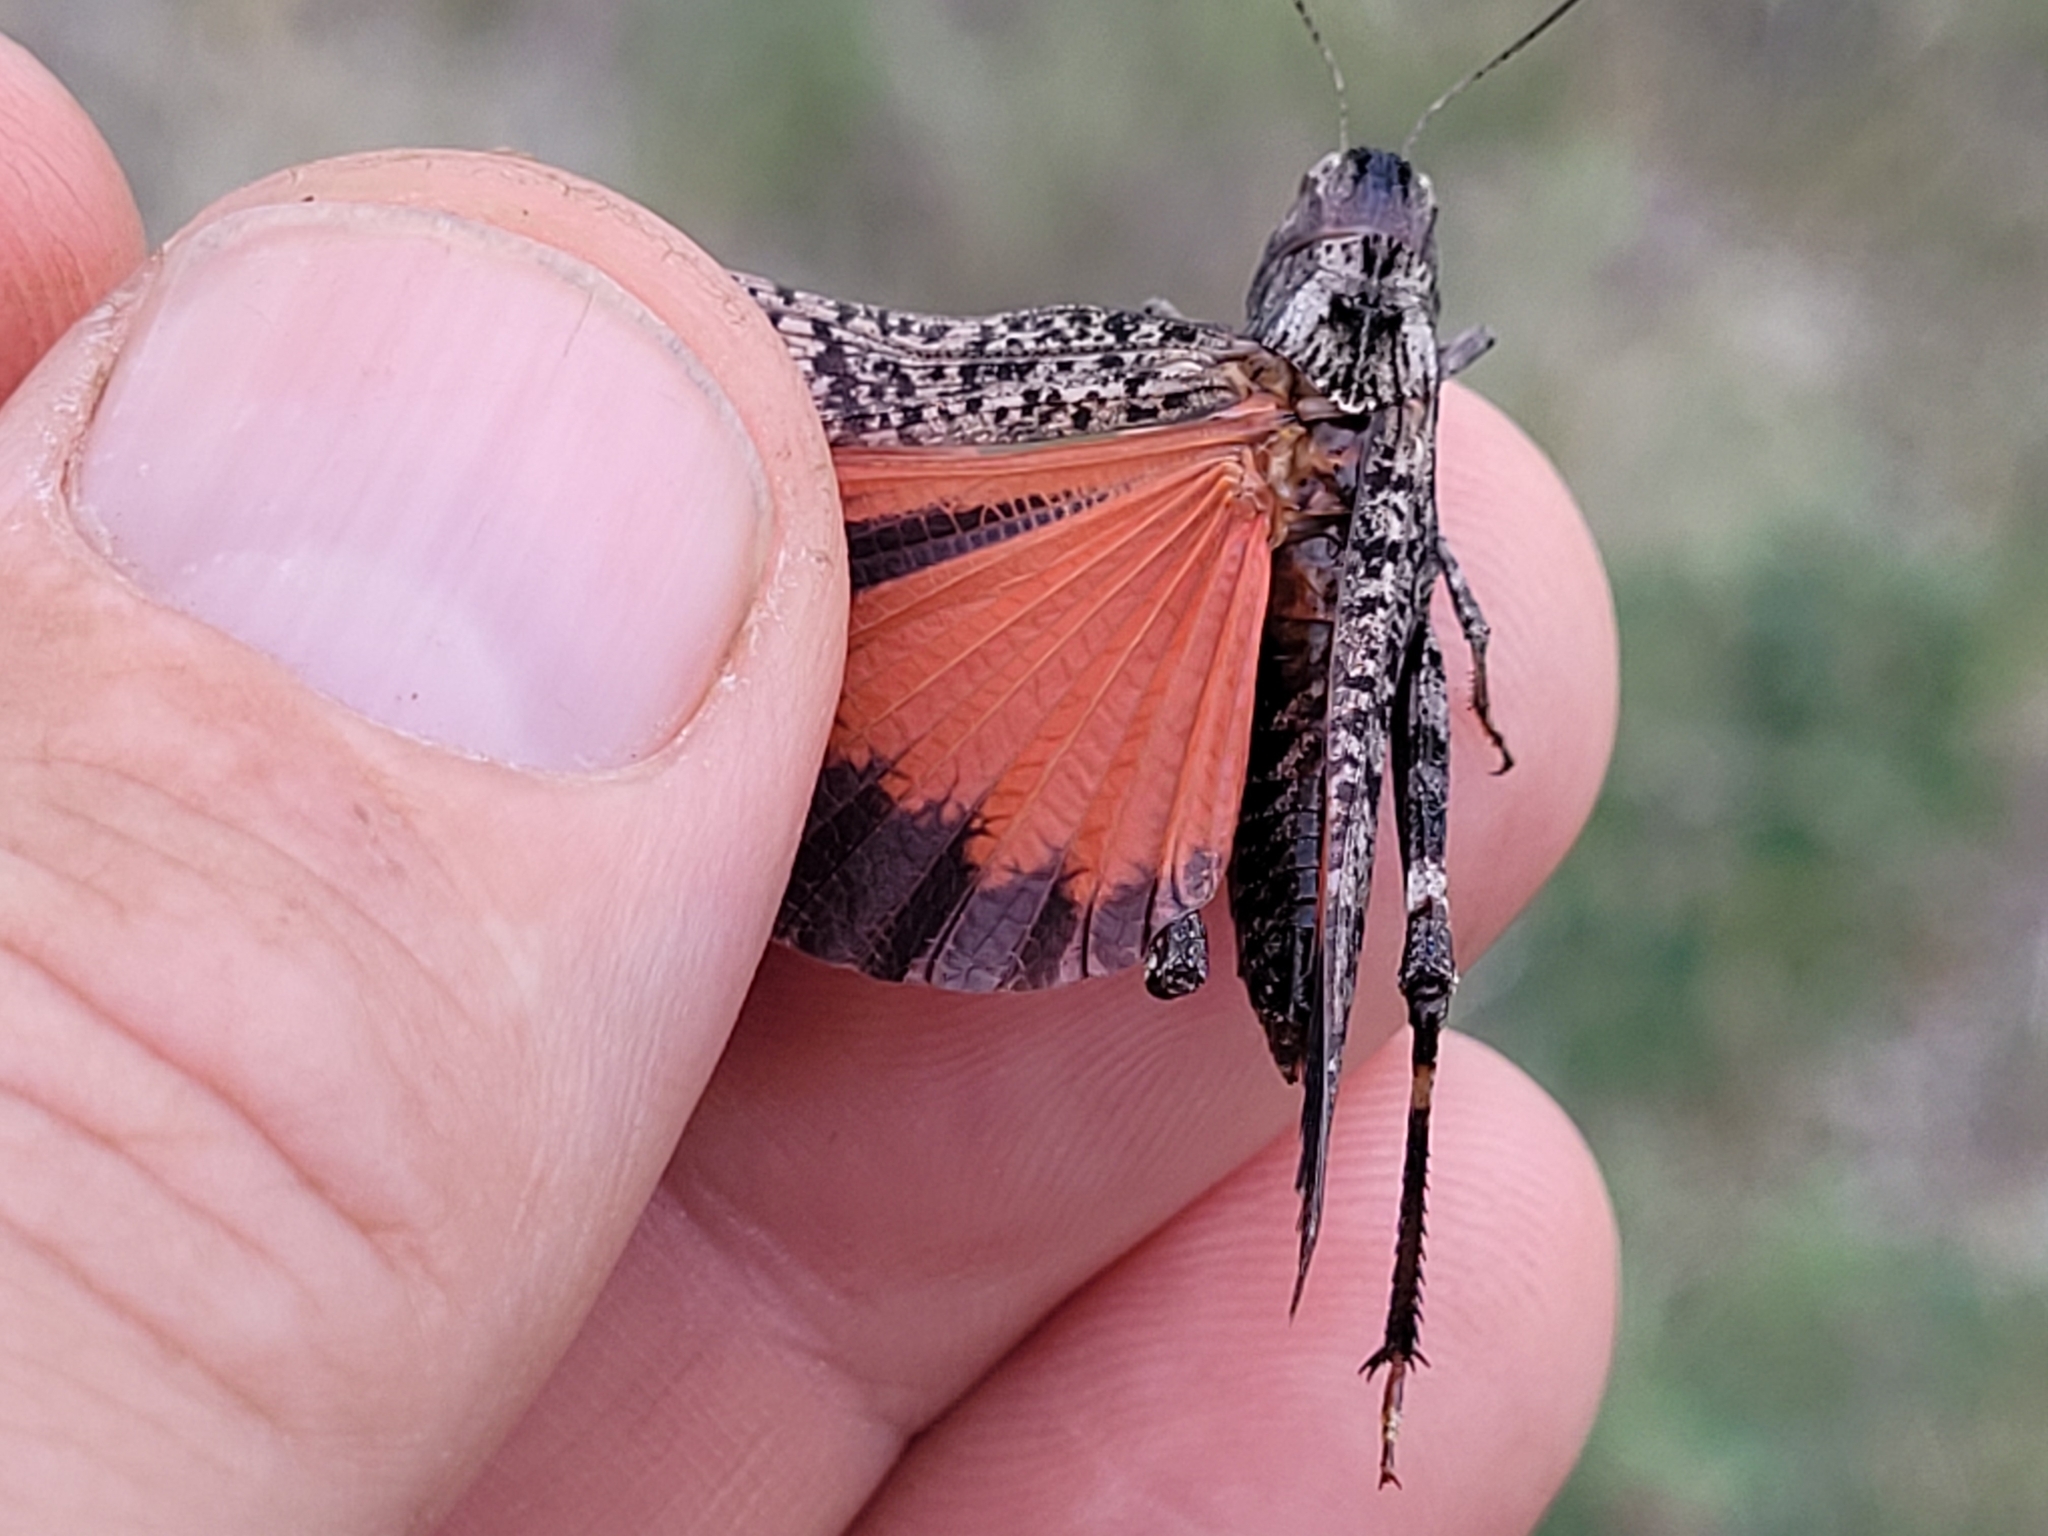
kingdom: Animalia
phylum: Arthropoda
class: Insecta
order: Orthoptera
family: Acrididae
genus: Arphia
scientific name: Arphia pseudo-nietana
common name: Red-winged grasshopper
